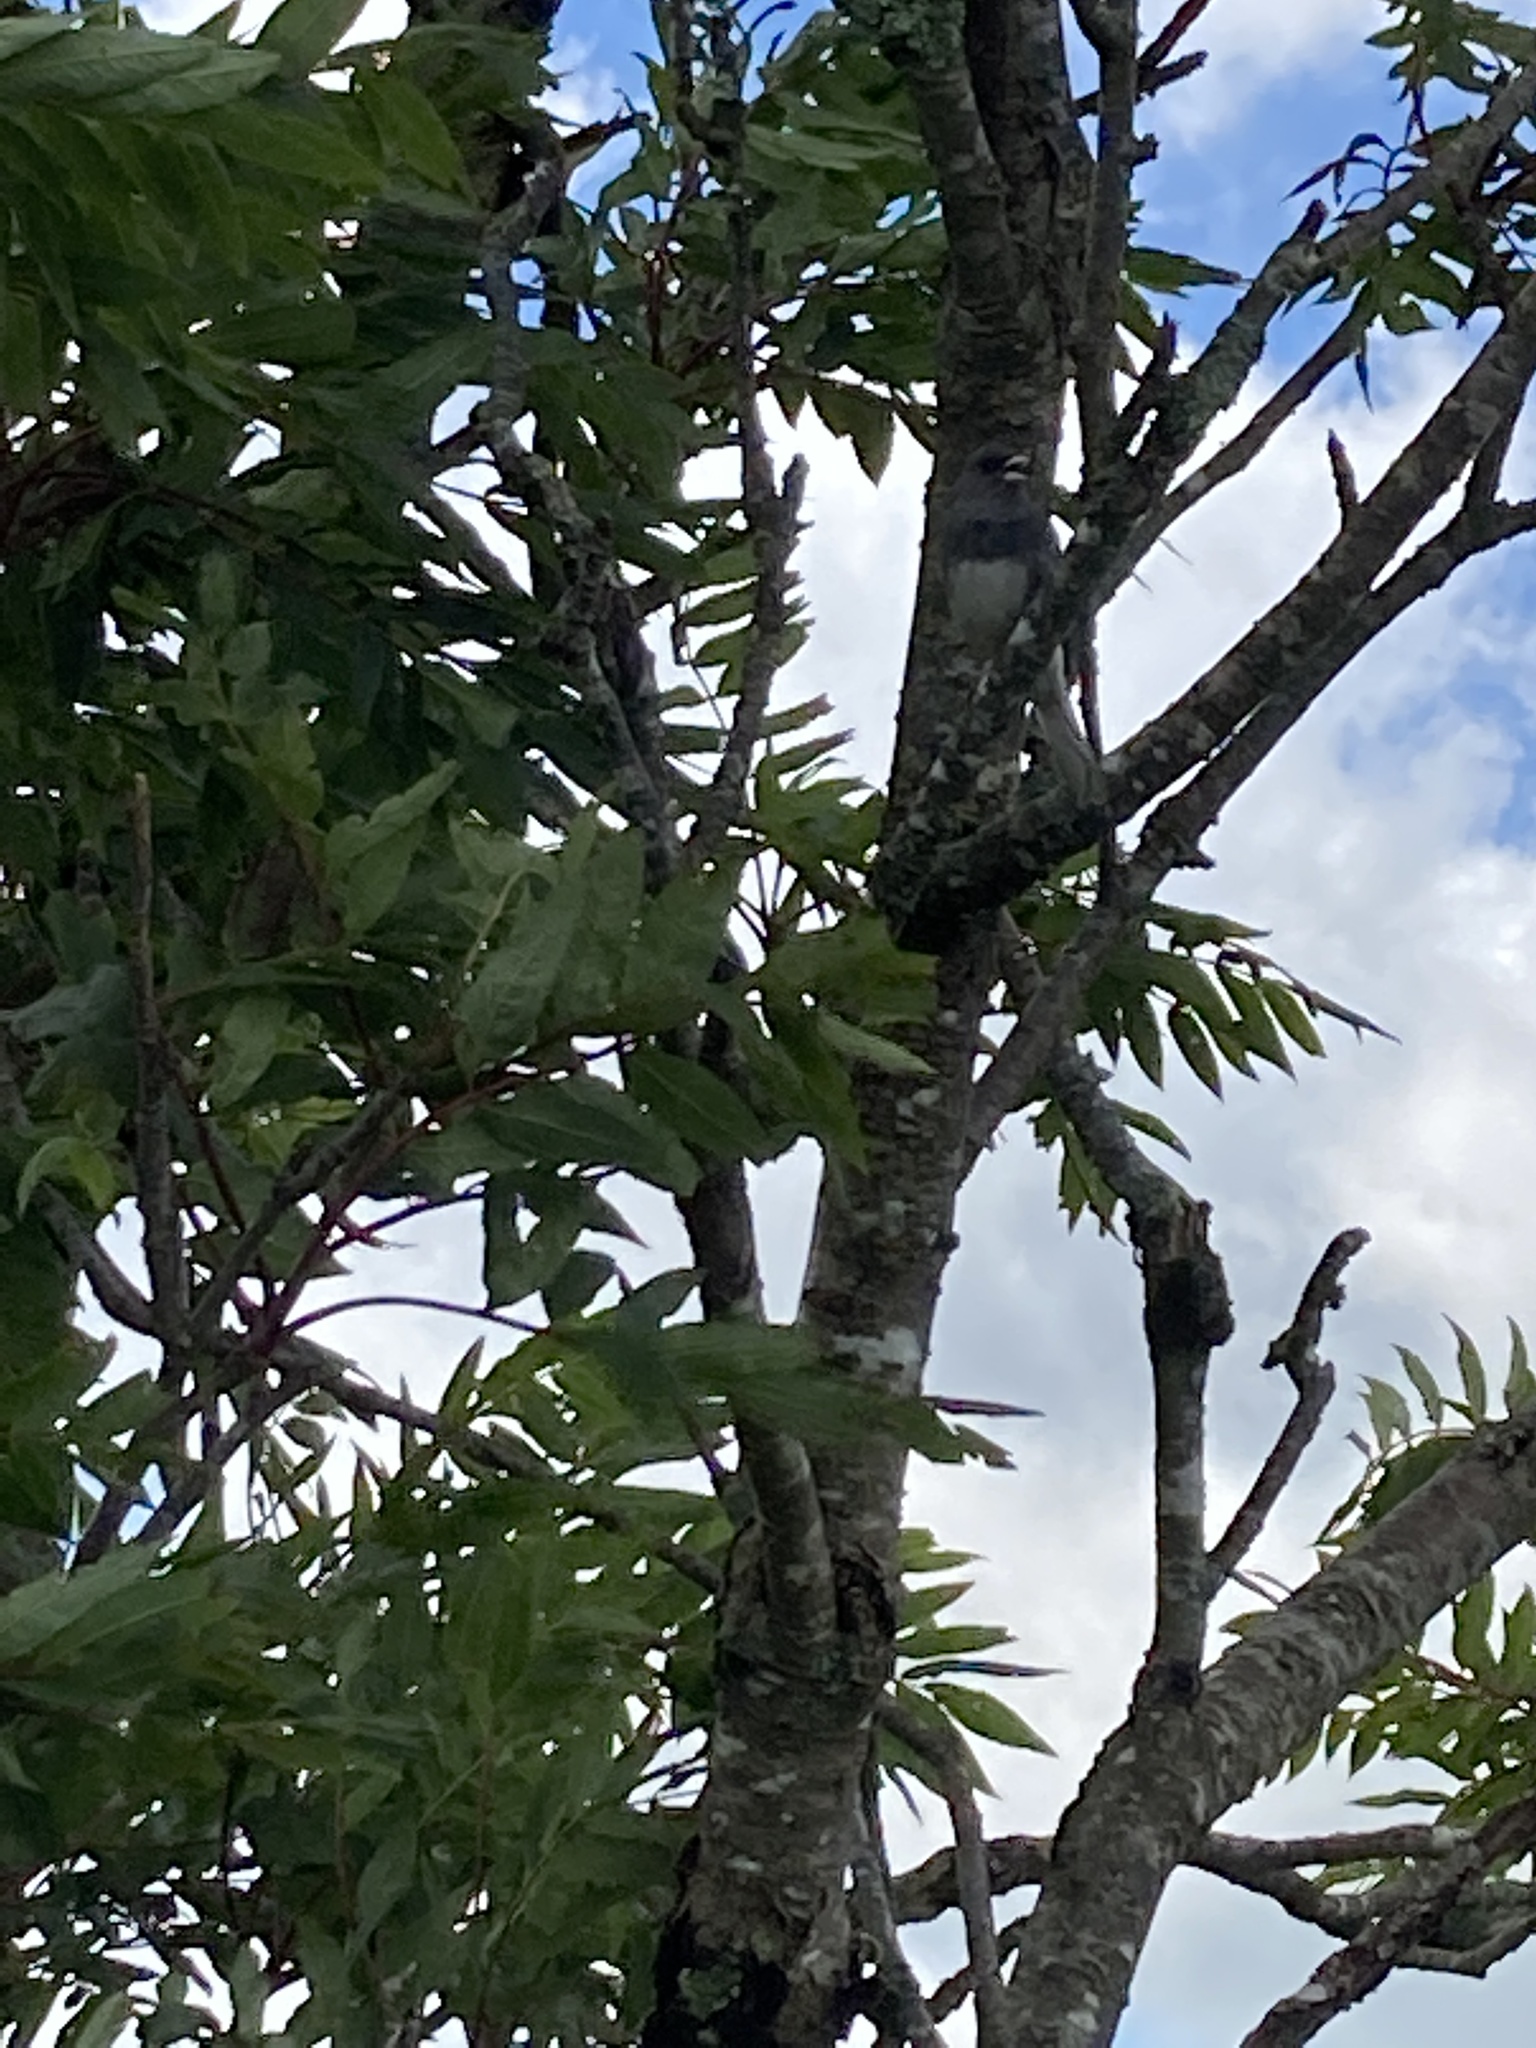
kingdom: Animalia
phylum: Chordata
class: Aves
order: Passeriformes
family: Passerellidae
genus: Junco
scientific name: Junco hyemalis
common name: Dark-eyed junco
